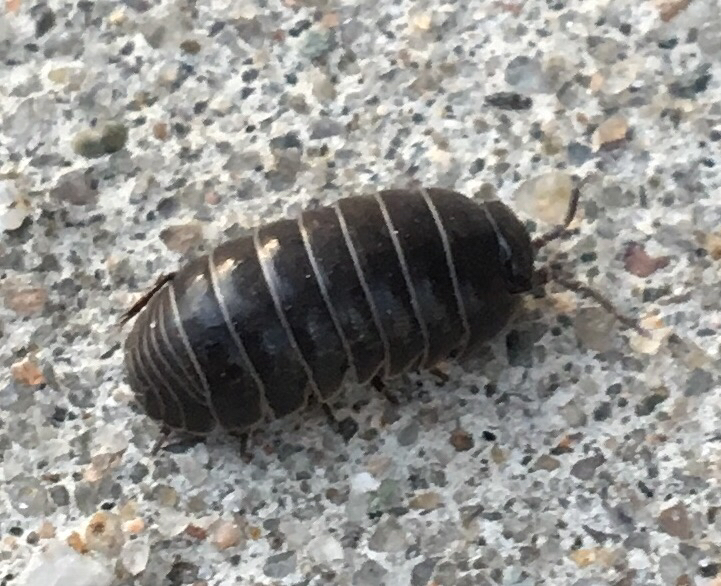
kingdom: Animalia
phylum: Arthropoda
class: Malacostraca
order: Isopoda
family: Armadillidiidae
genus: Armadillidium
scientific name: Armadillidium vulgare
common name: Common pill woodlouse
